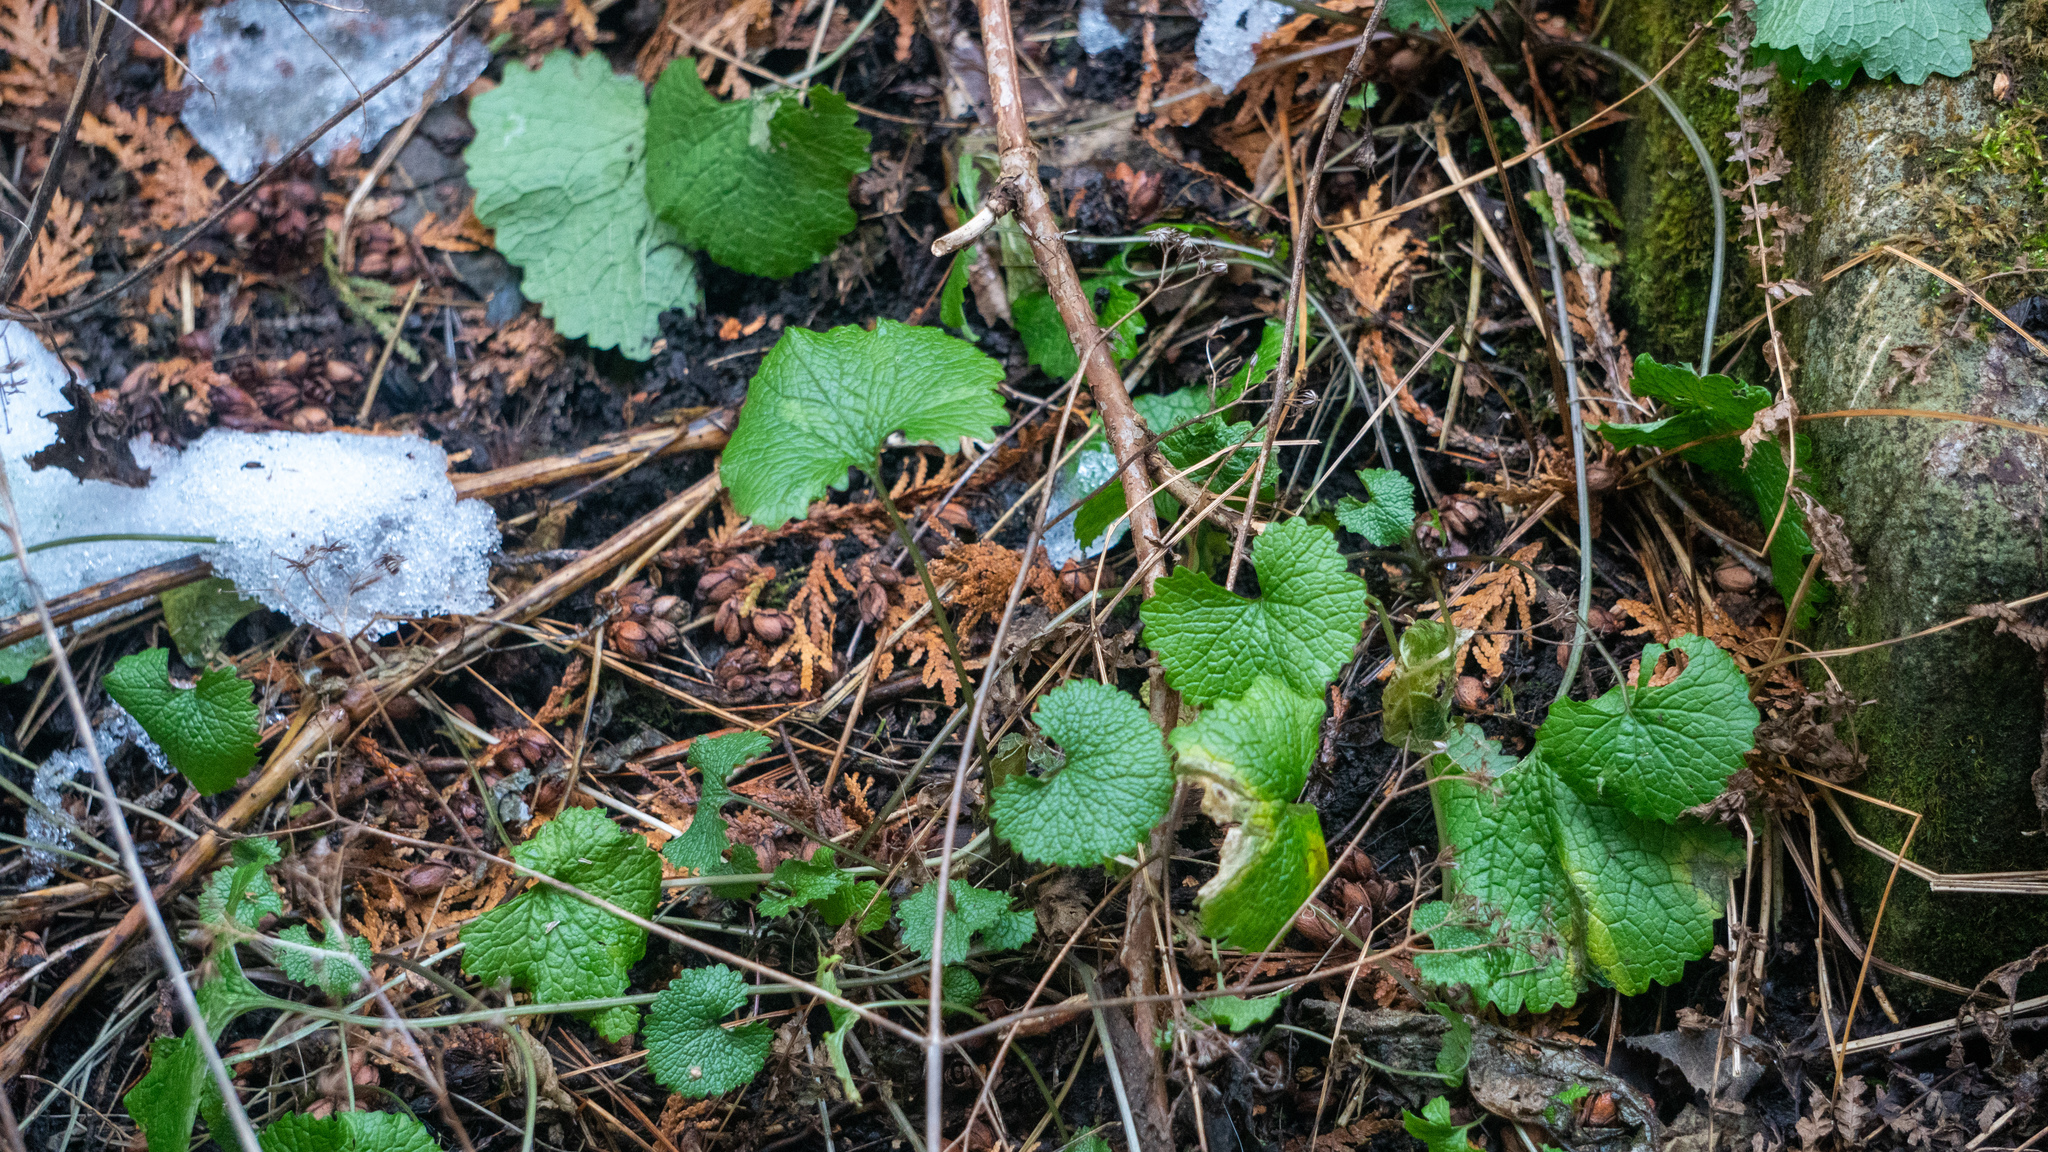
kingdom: Plantae
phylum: Tracheophyta
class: Magnoliopsida
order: Brassicales
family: Brassicaceae
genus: Alliaria
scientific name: Alliaria petiolata
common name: Garlic mustard
